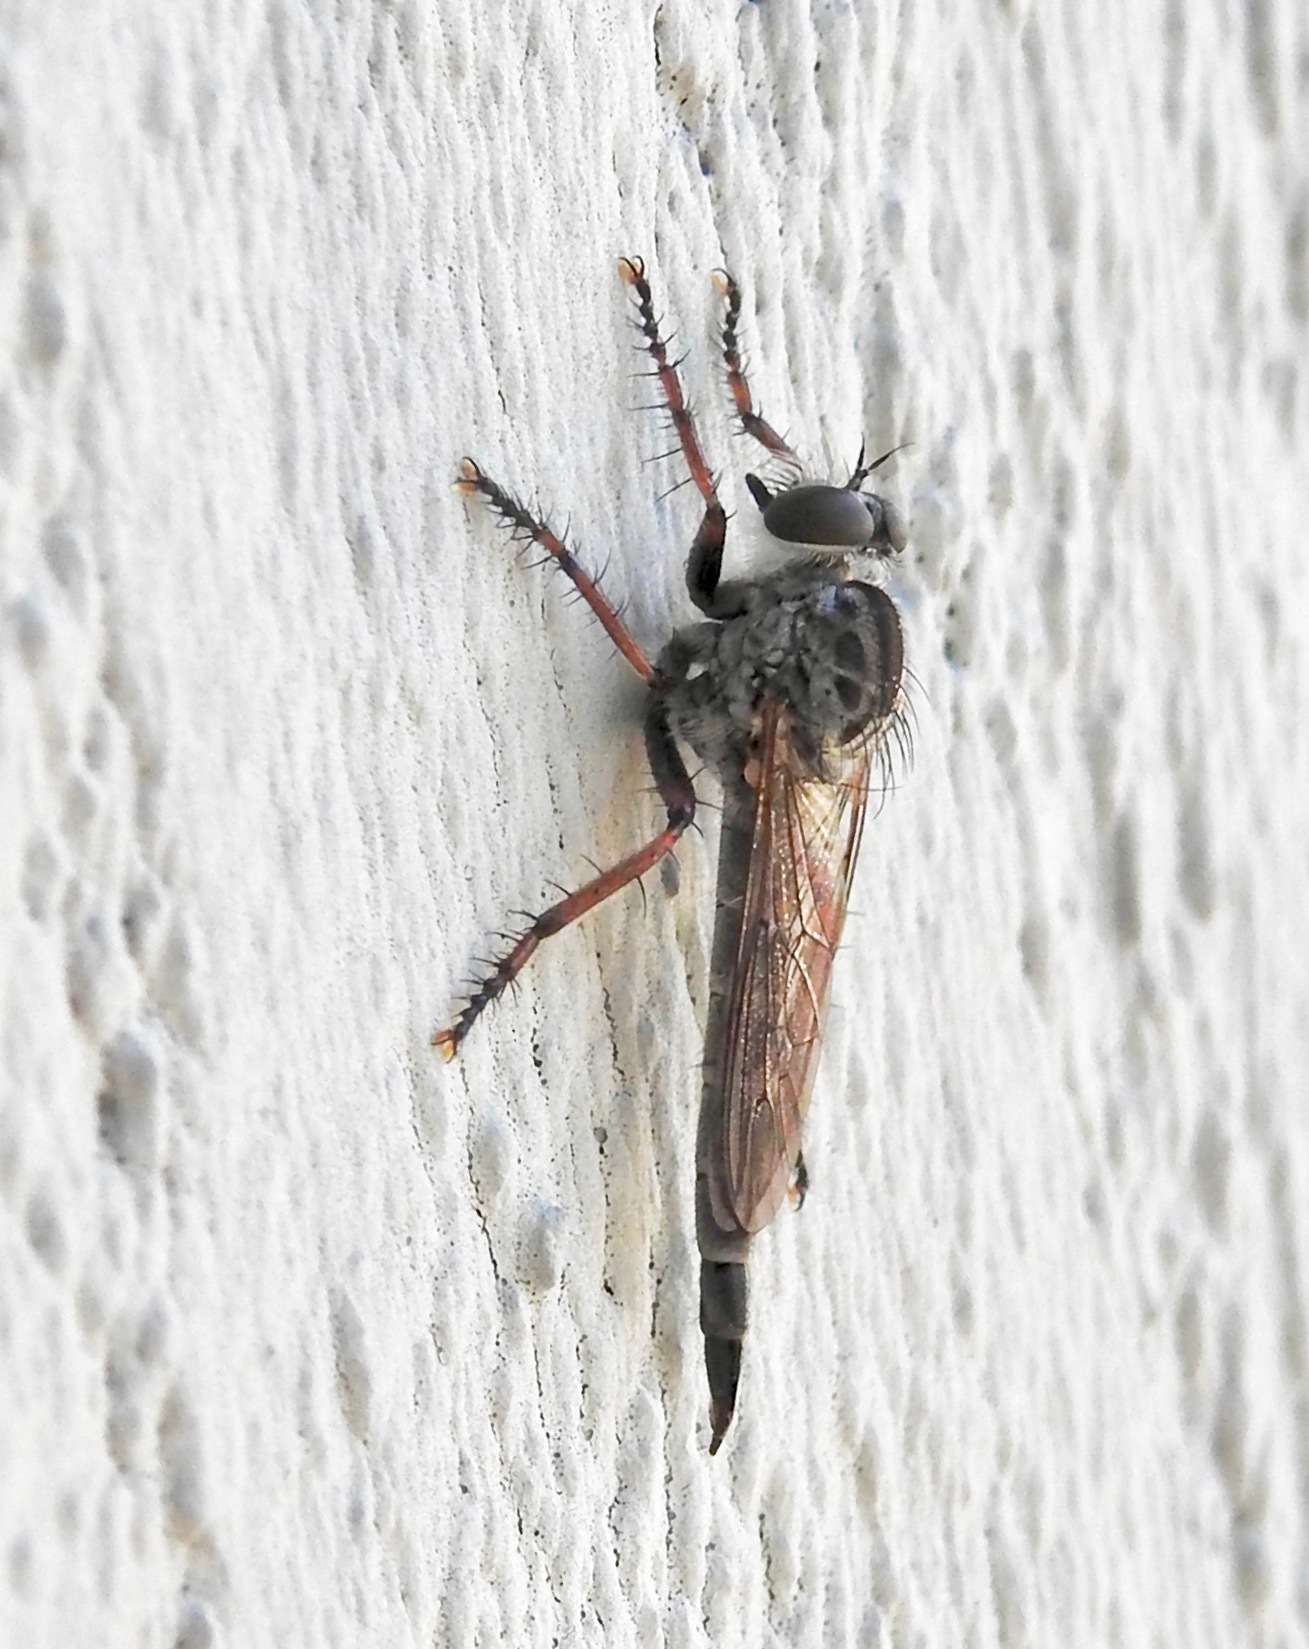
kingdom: Animalia
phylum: Arthropoda
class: Insecta
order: Diptera
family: Asilidae
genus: Machimus
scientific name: Machimus blantoni
